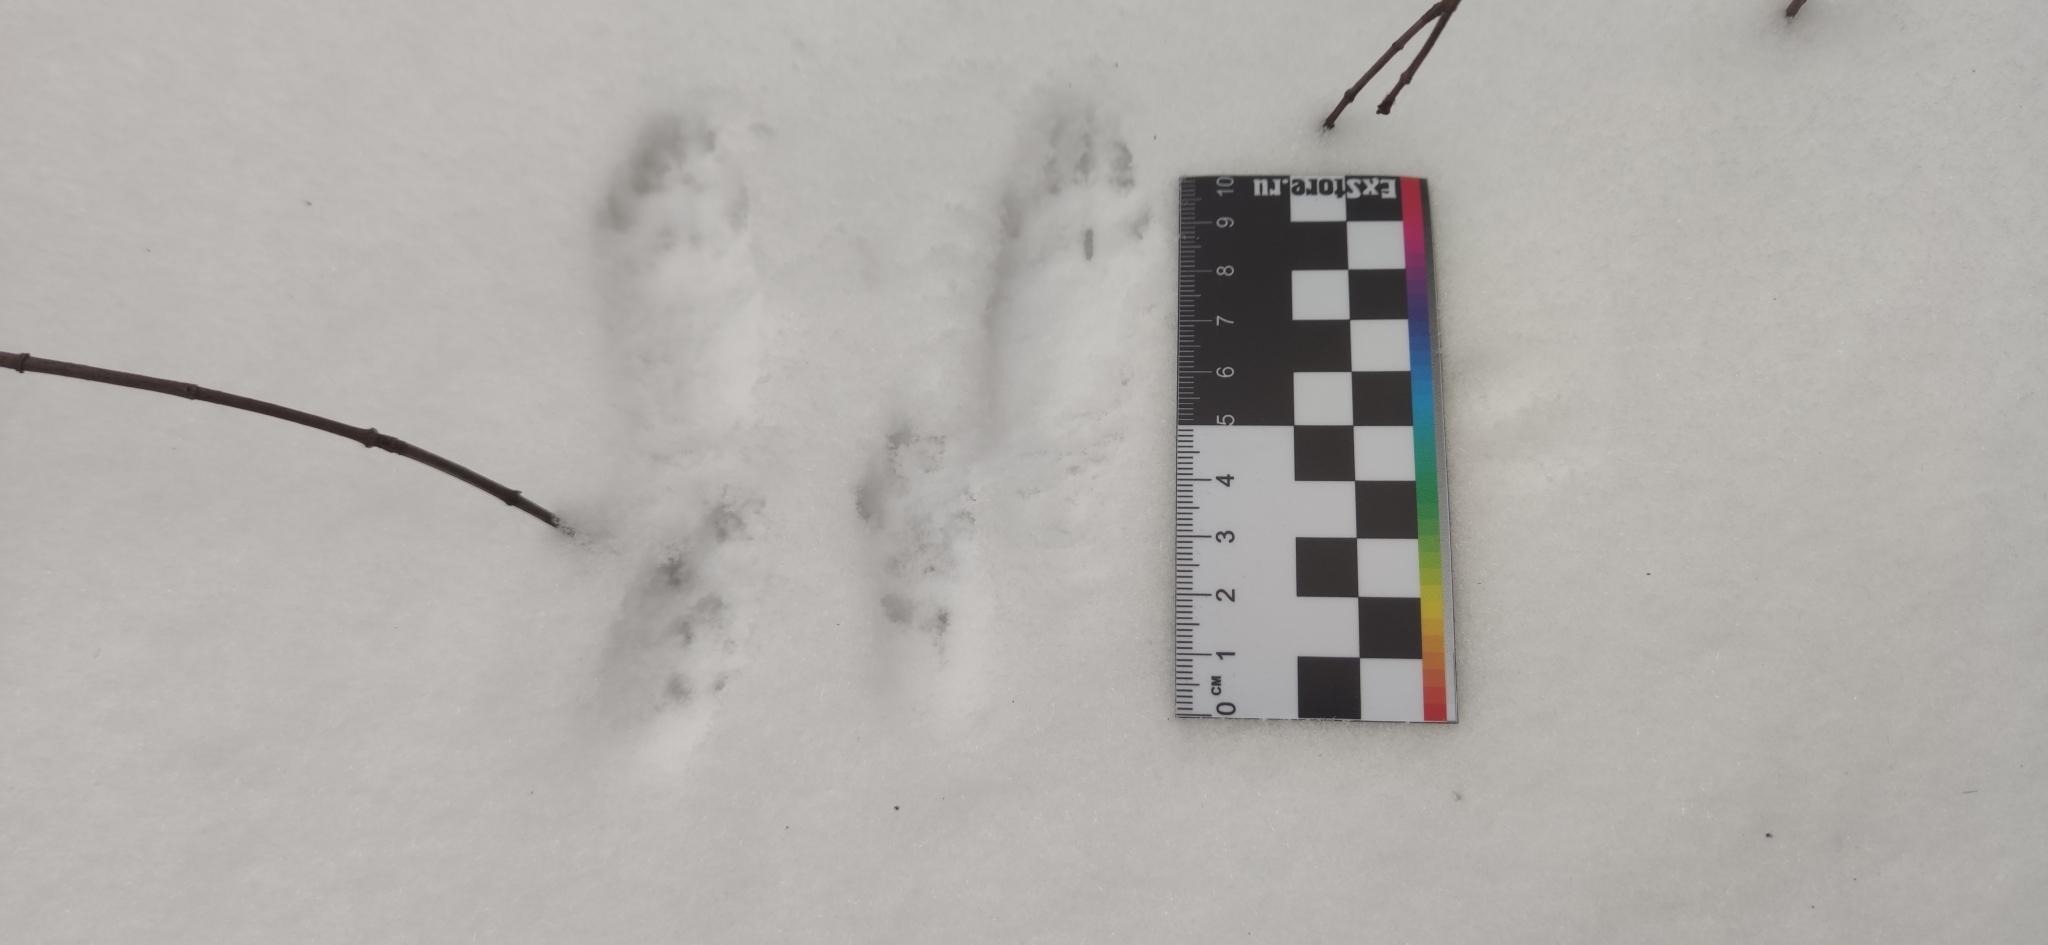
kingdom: Animalia
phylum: Chordata
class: Mammalia
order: Rodentia
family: Sciuridae
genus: Sciurus
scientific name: Sciurus vulgaris
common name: Eurasian red squirrel
